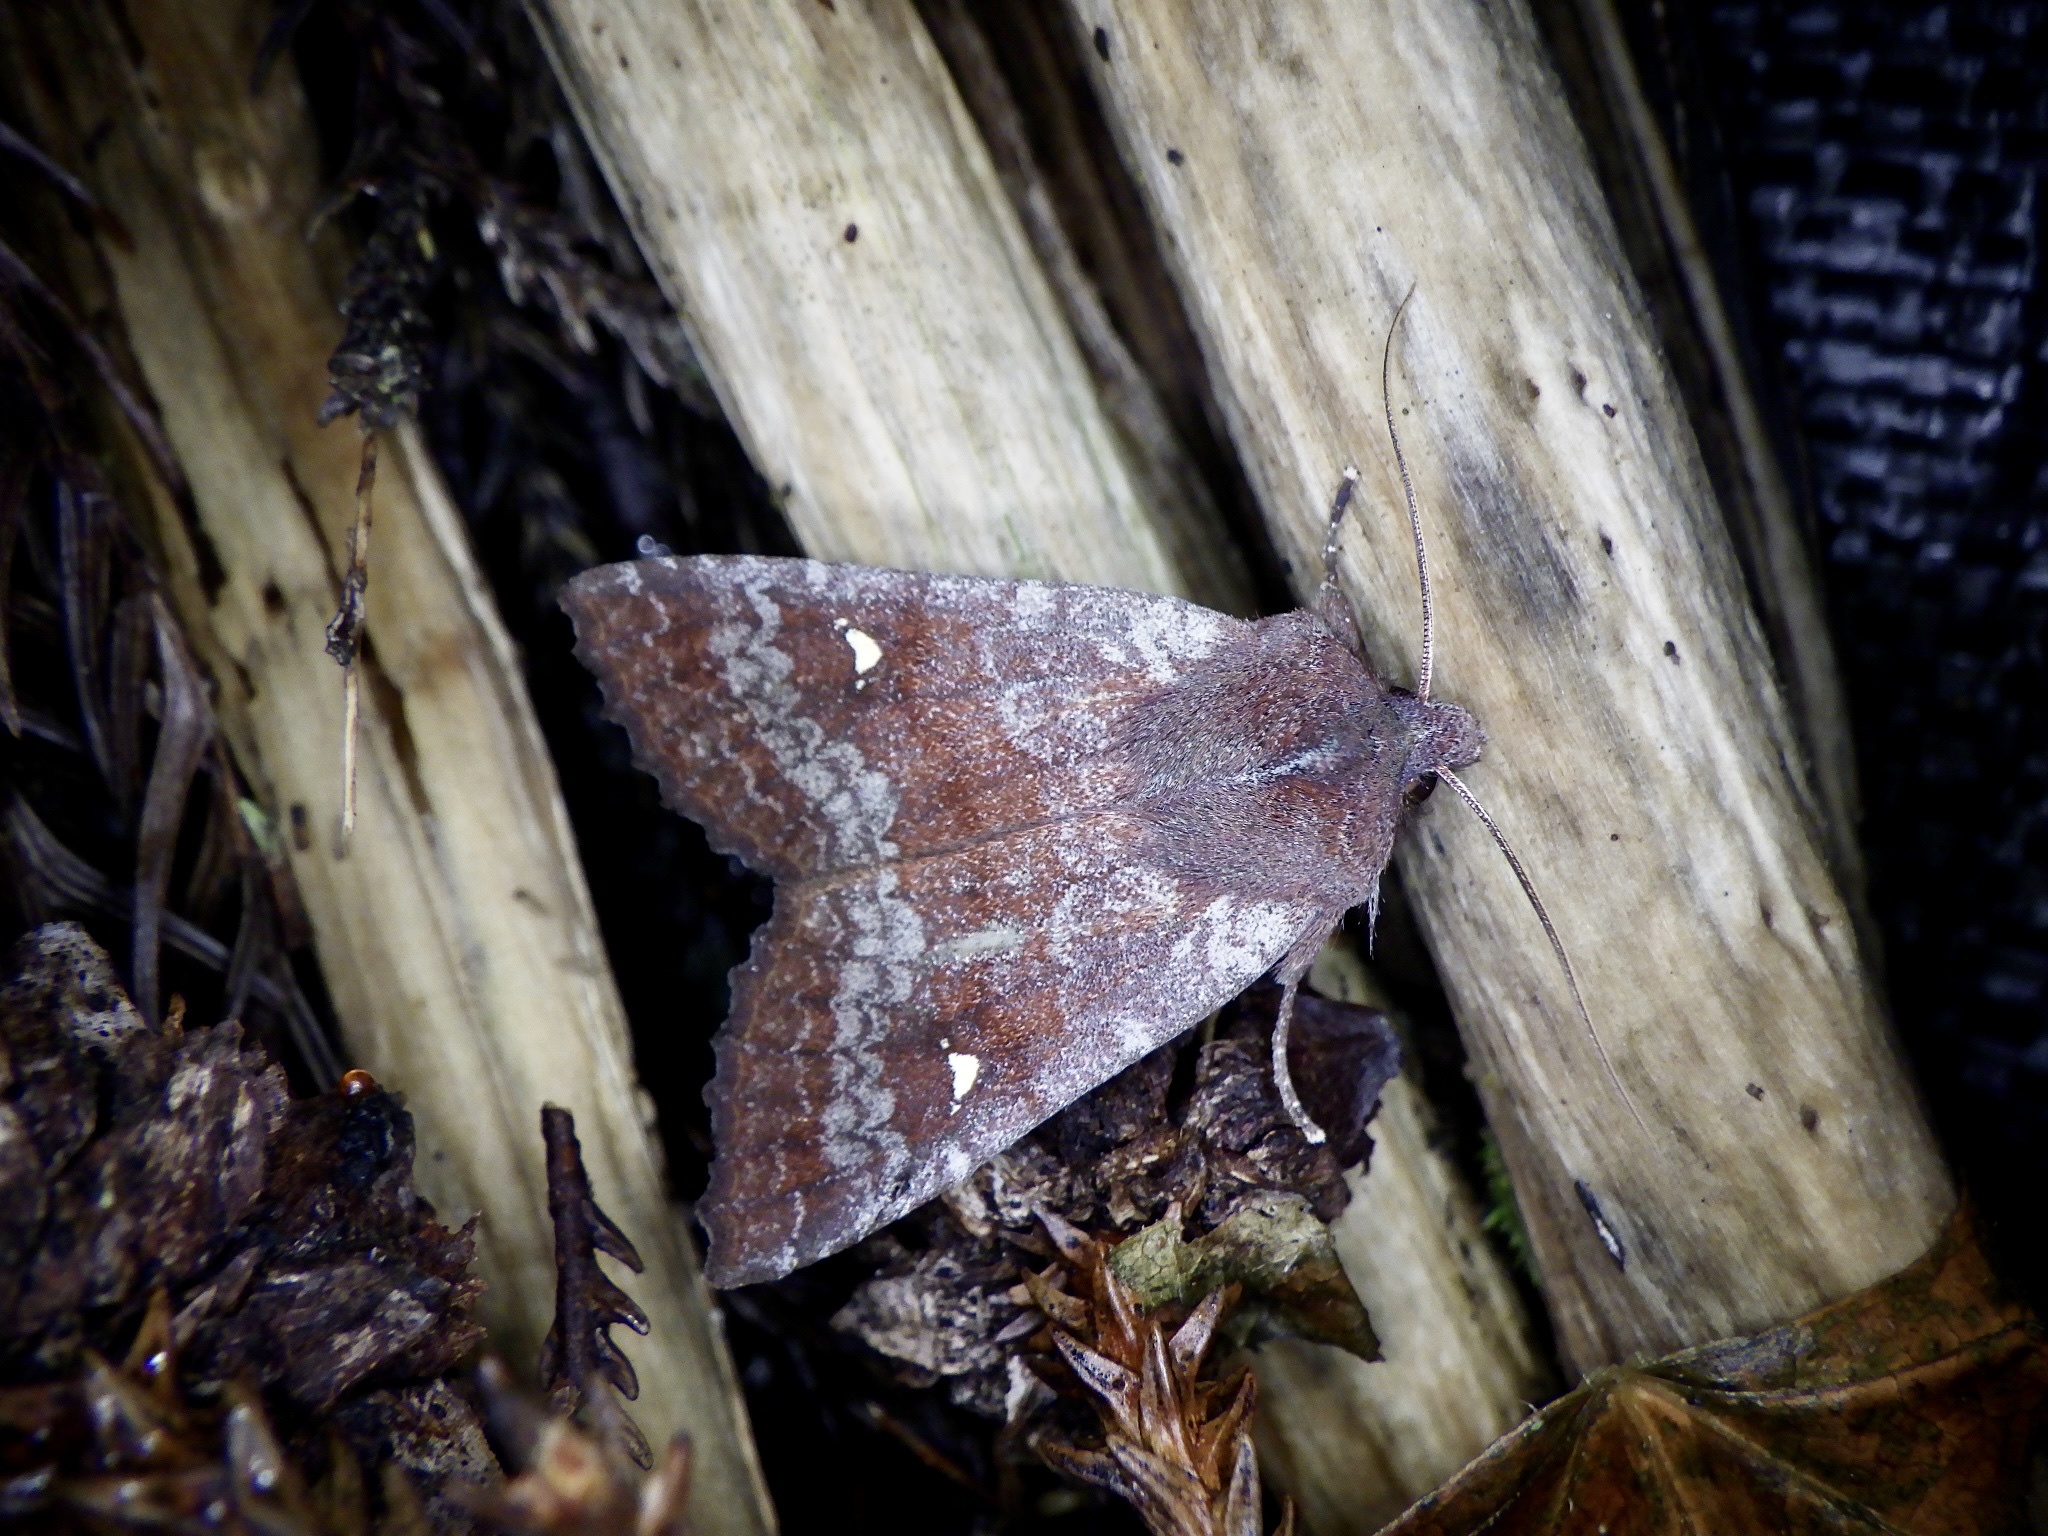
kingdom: Animalia
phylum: Arthropoda
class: Insecta
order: Lepidoptera
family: Noctuidae
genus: Eupsilia
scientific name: Eupsilia unipuncta
